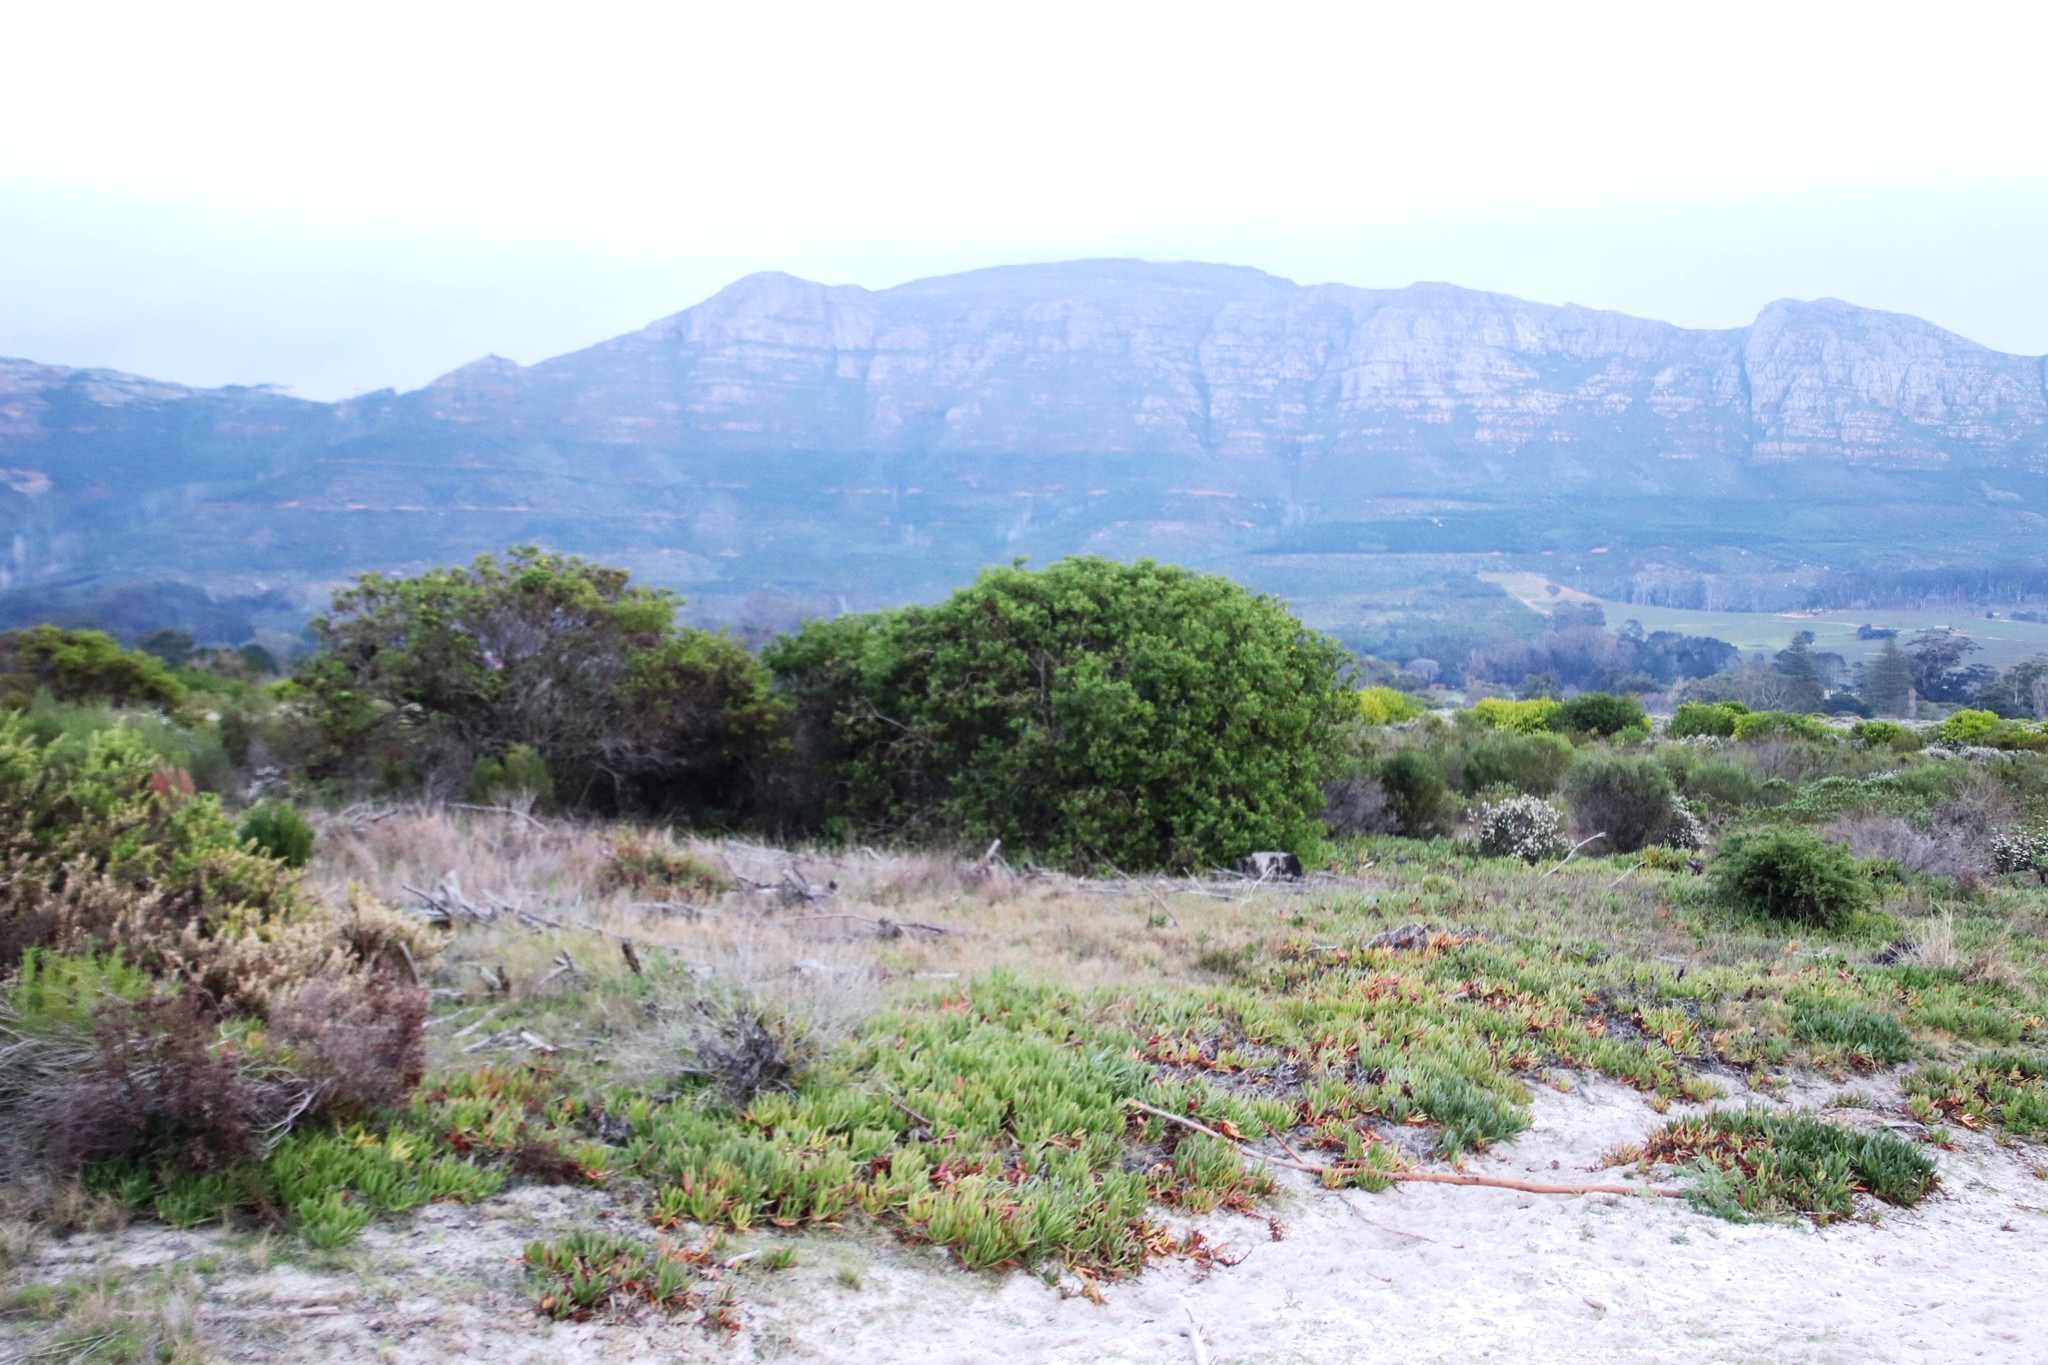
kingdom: Plantae
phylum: Tracheophyta
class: Magnoliopsida
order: Asterales
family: Asteraceae
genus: Osteospermum
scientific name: Osteospermum moniliferum
